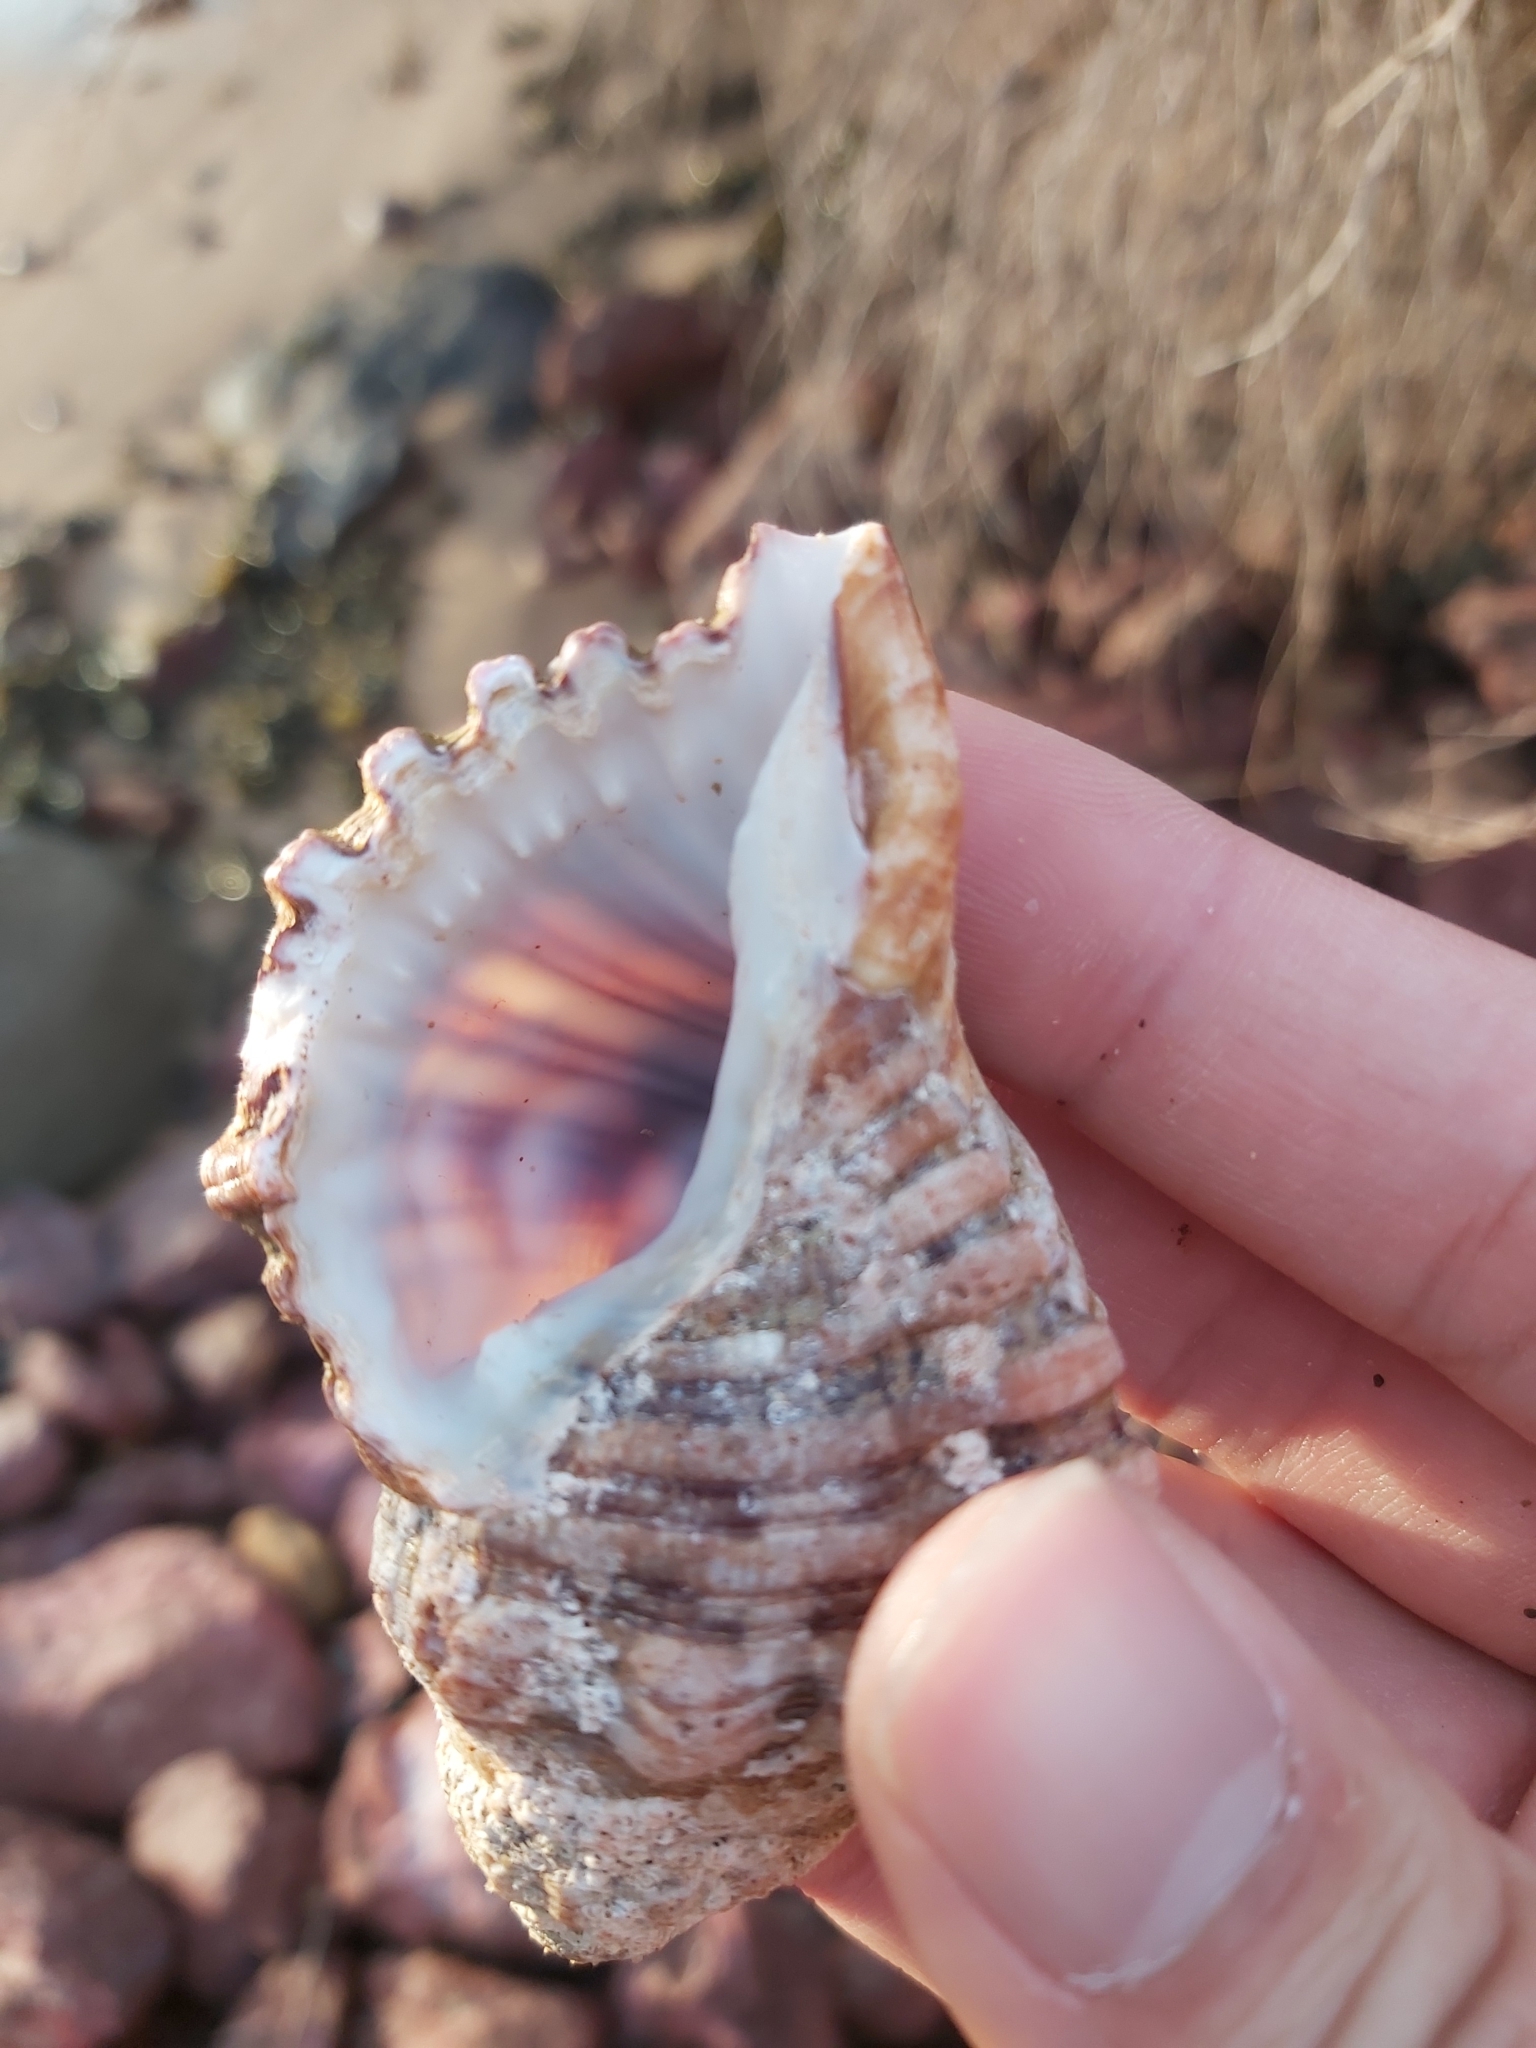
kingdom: Animalia
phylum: Mollusca
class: Gastropoda
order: Littorinimorpha
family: Cymatiidae
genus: Cabestana
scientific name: Cabestana spengleri
